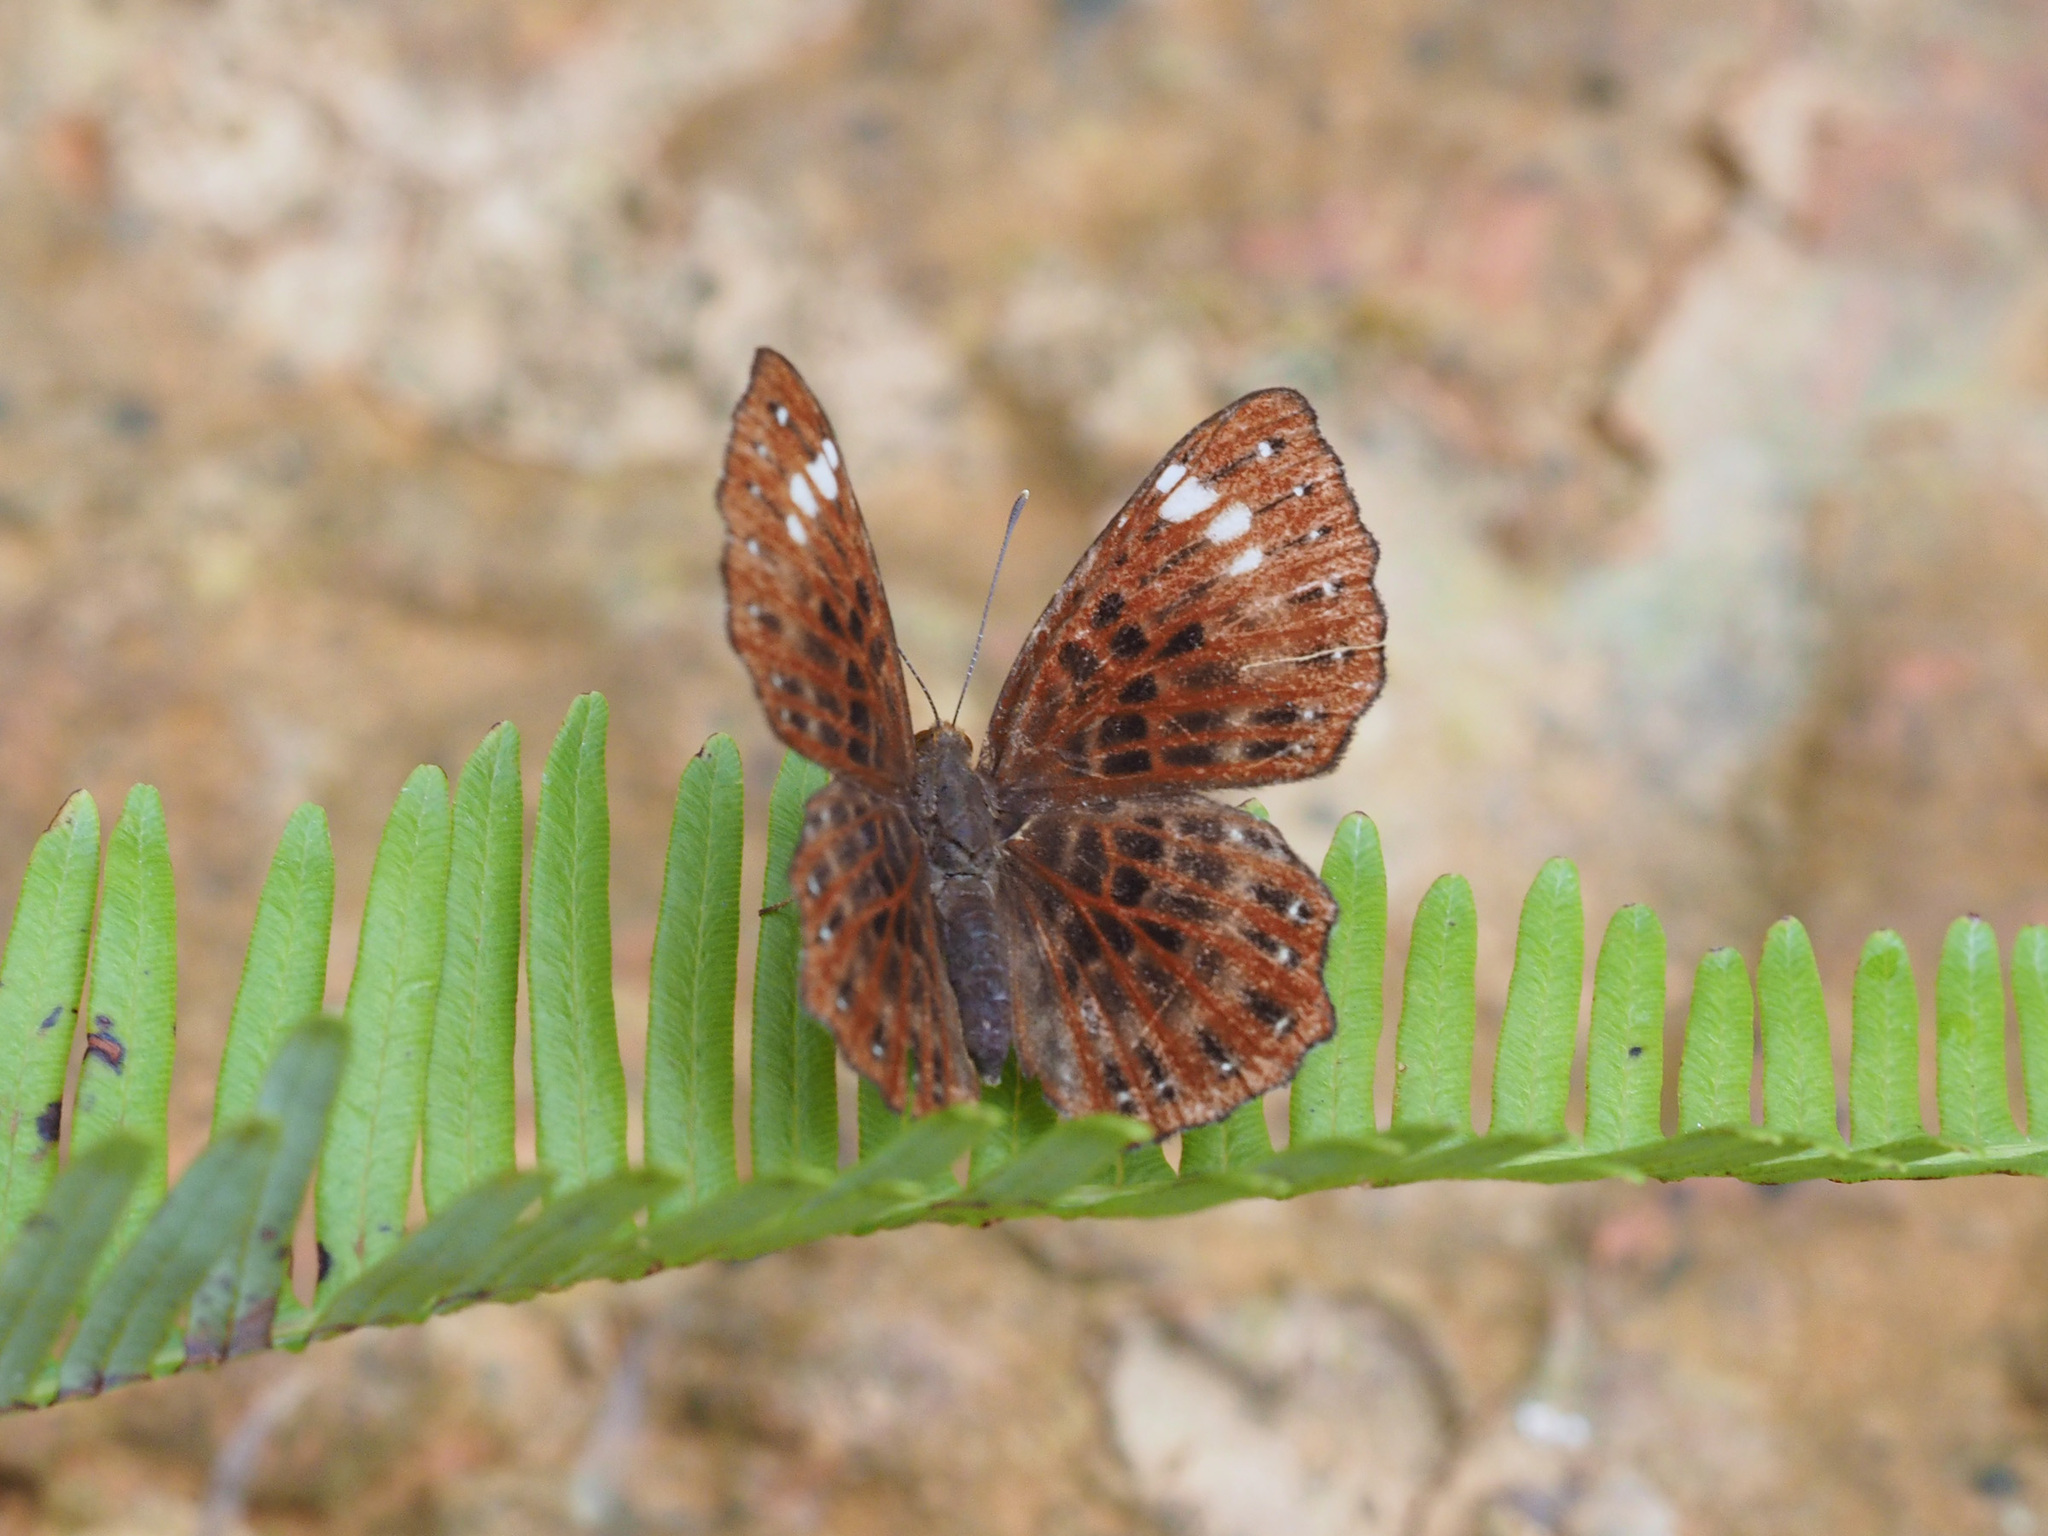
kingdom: Animalia
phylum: Arthropoda
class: Insecta
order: Lepidoptera
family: Riodinidae
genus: Zemeros
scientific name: Zemeros flegyas
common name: Punchinello
